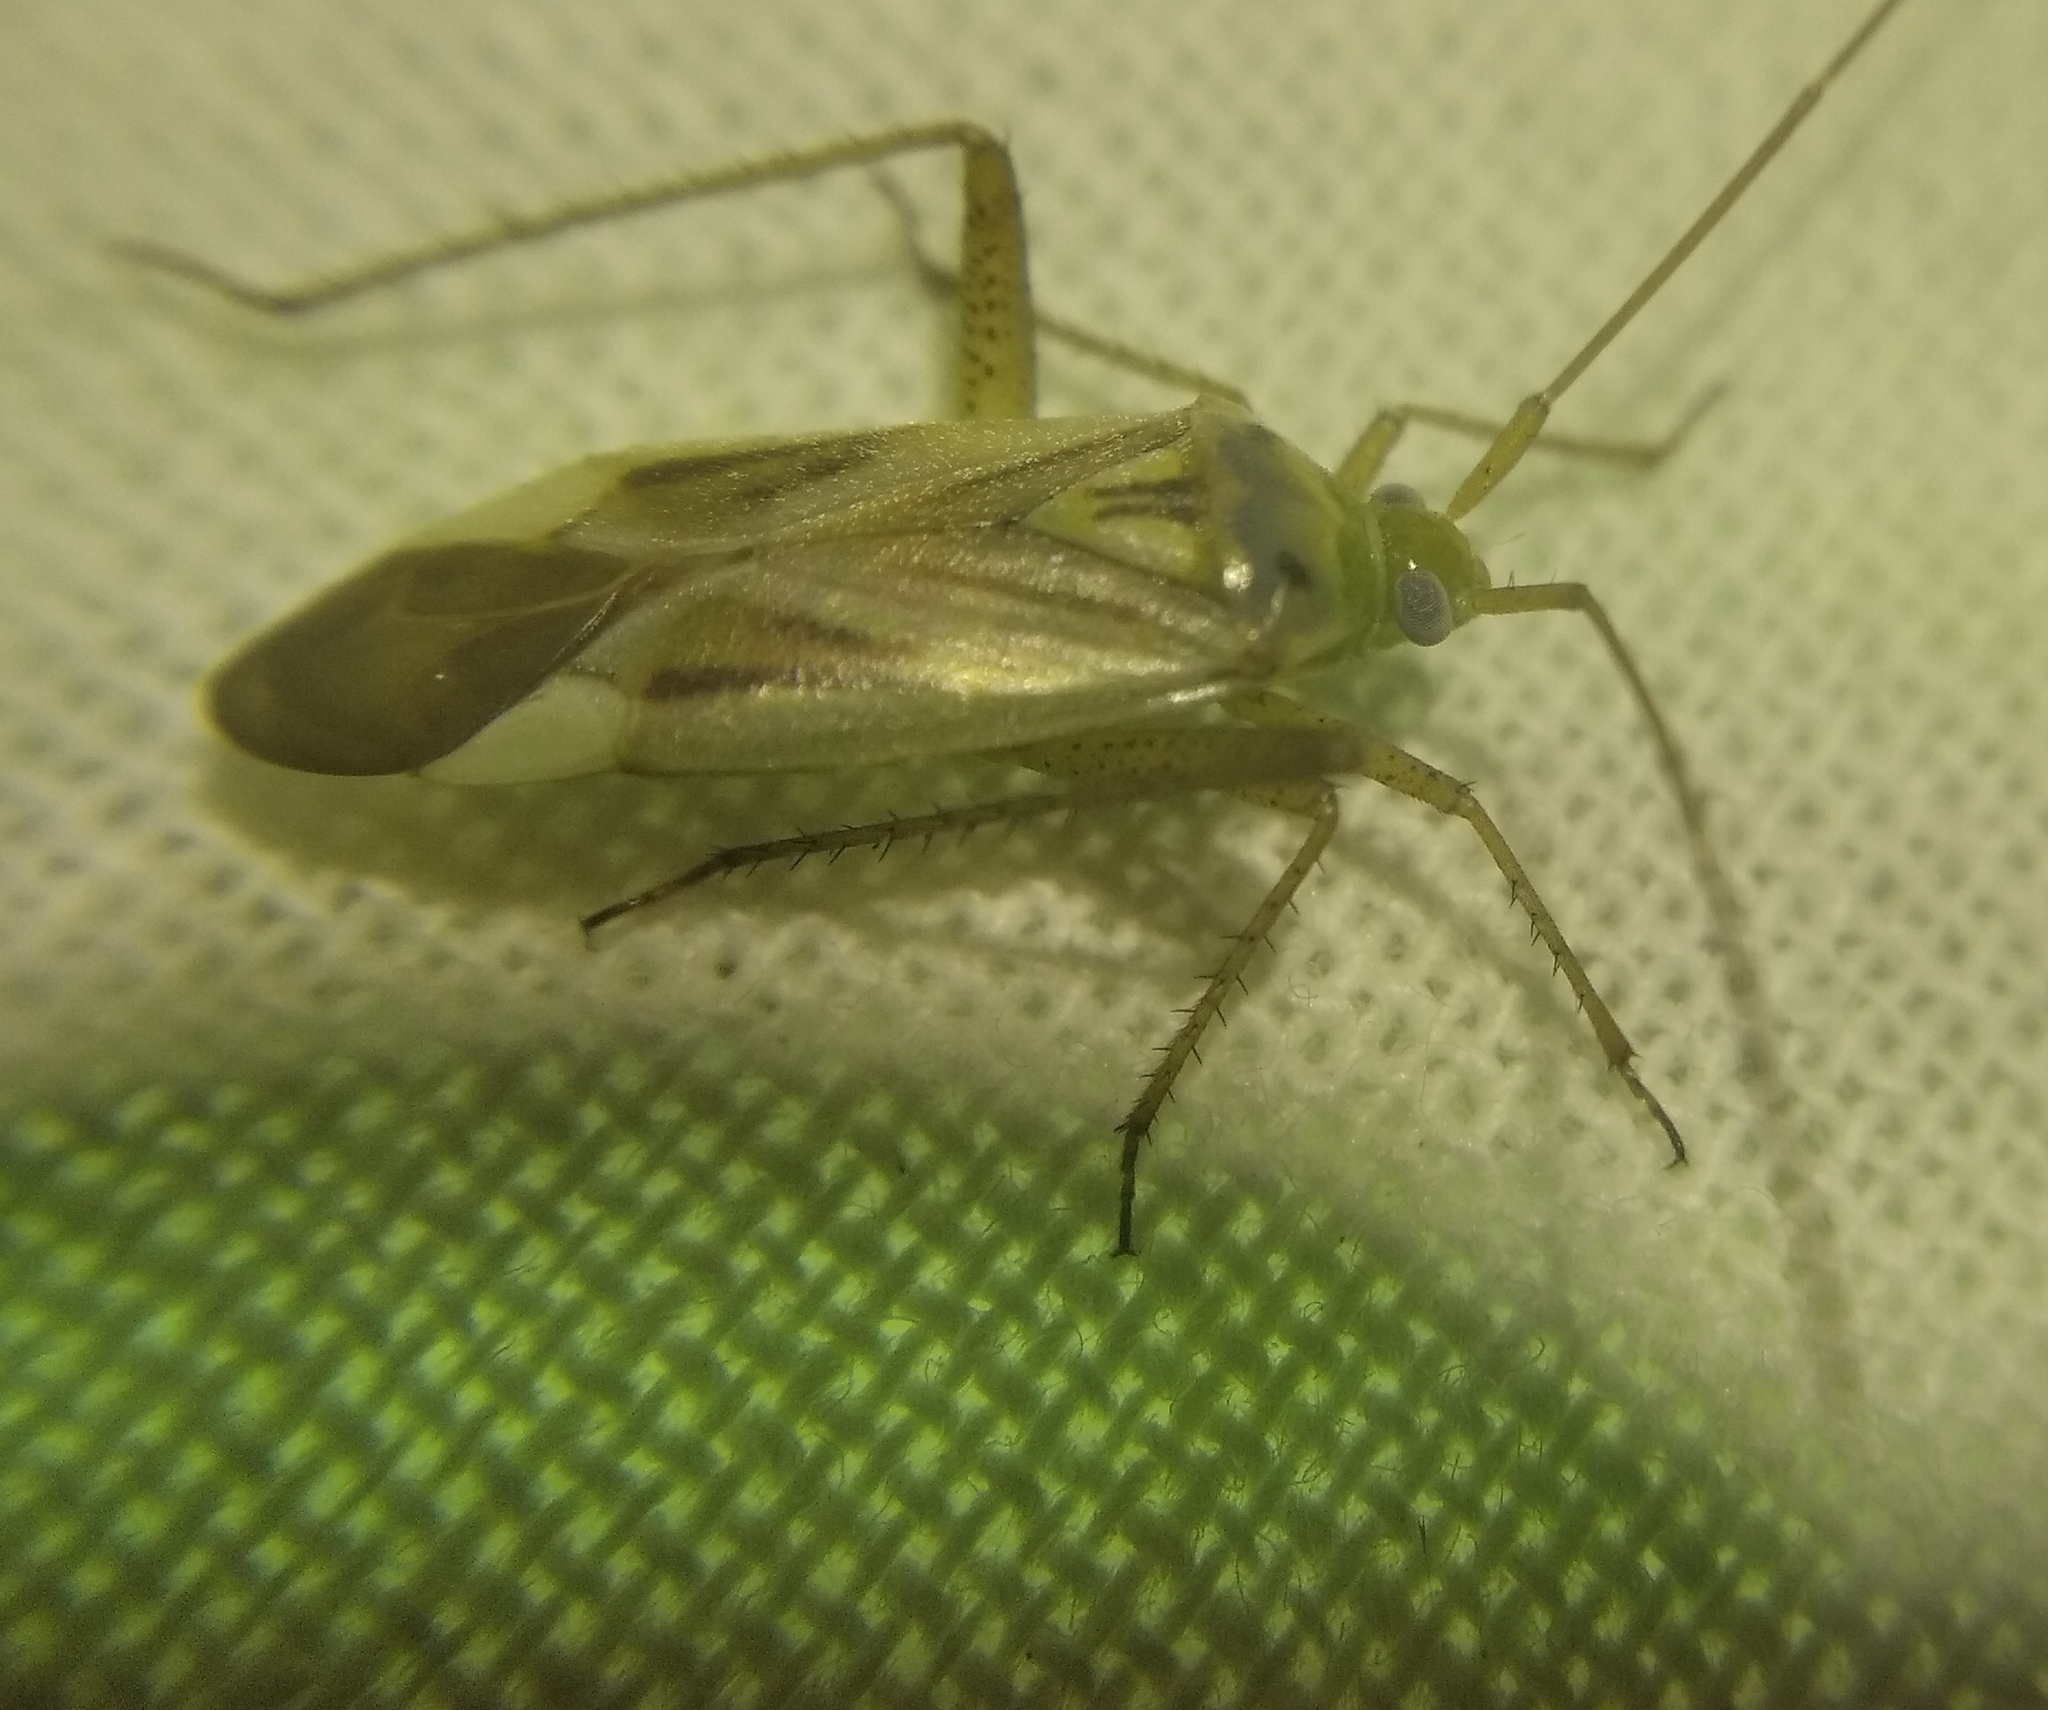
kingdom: Animalia
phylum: Arthropoda
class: Insecta
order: Hemiptera
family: Miridae
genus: Adelphocoris
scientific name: Adelphocoris lineolatus
